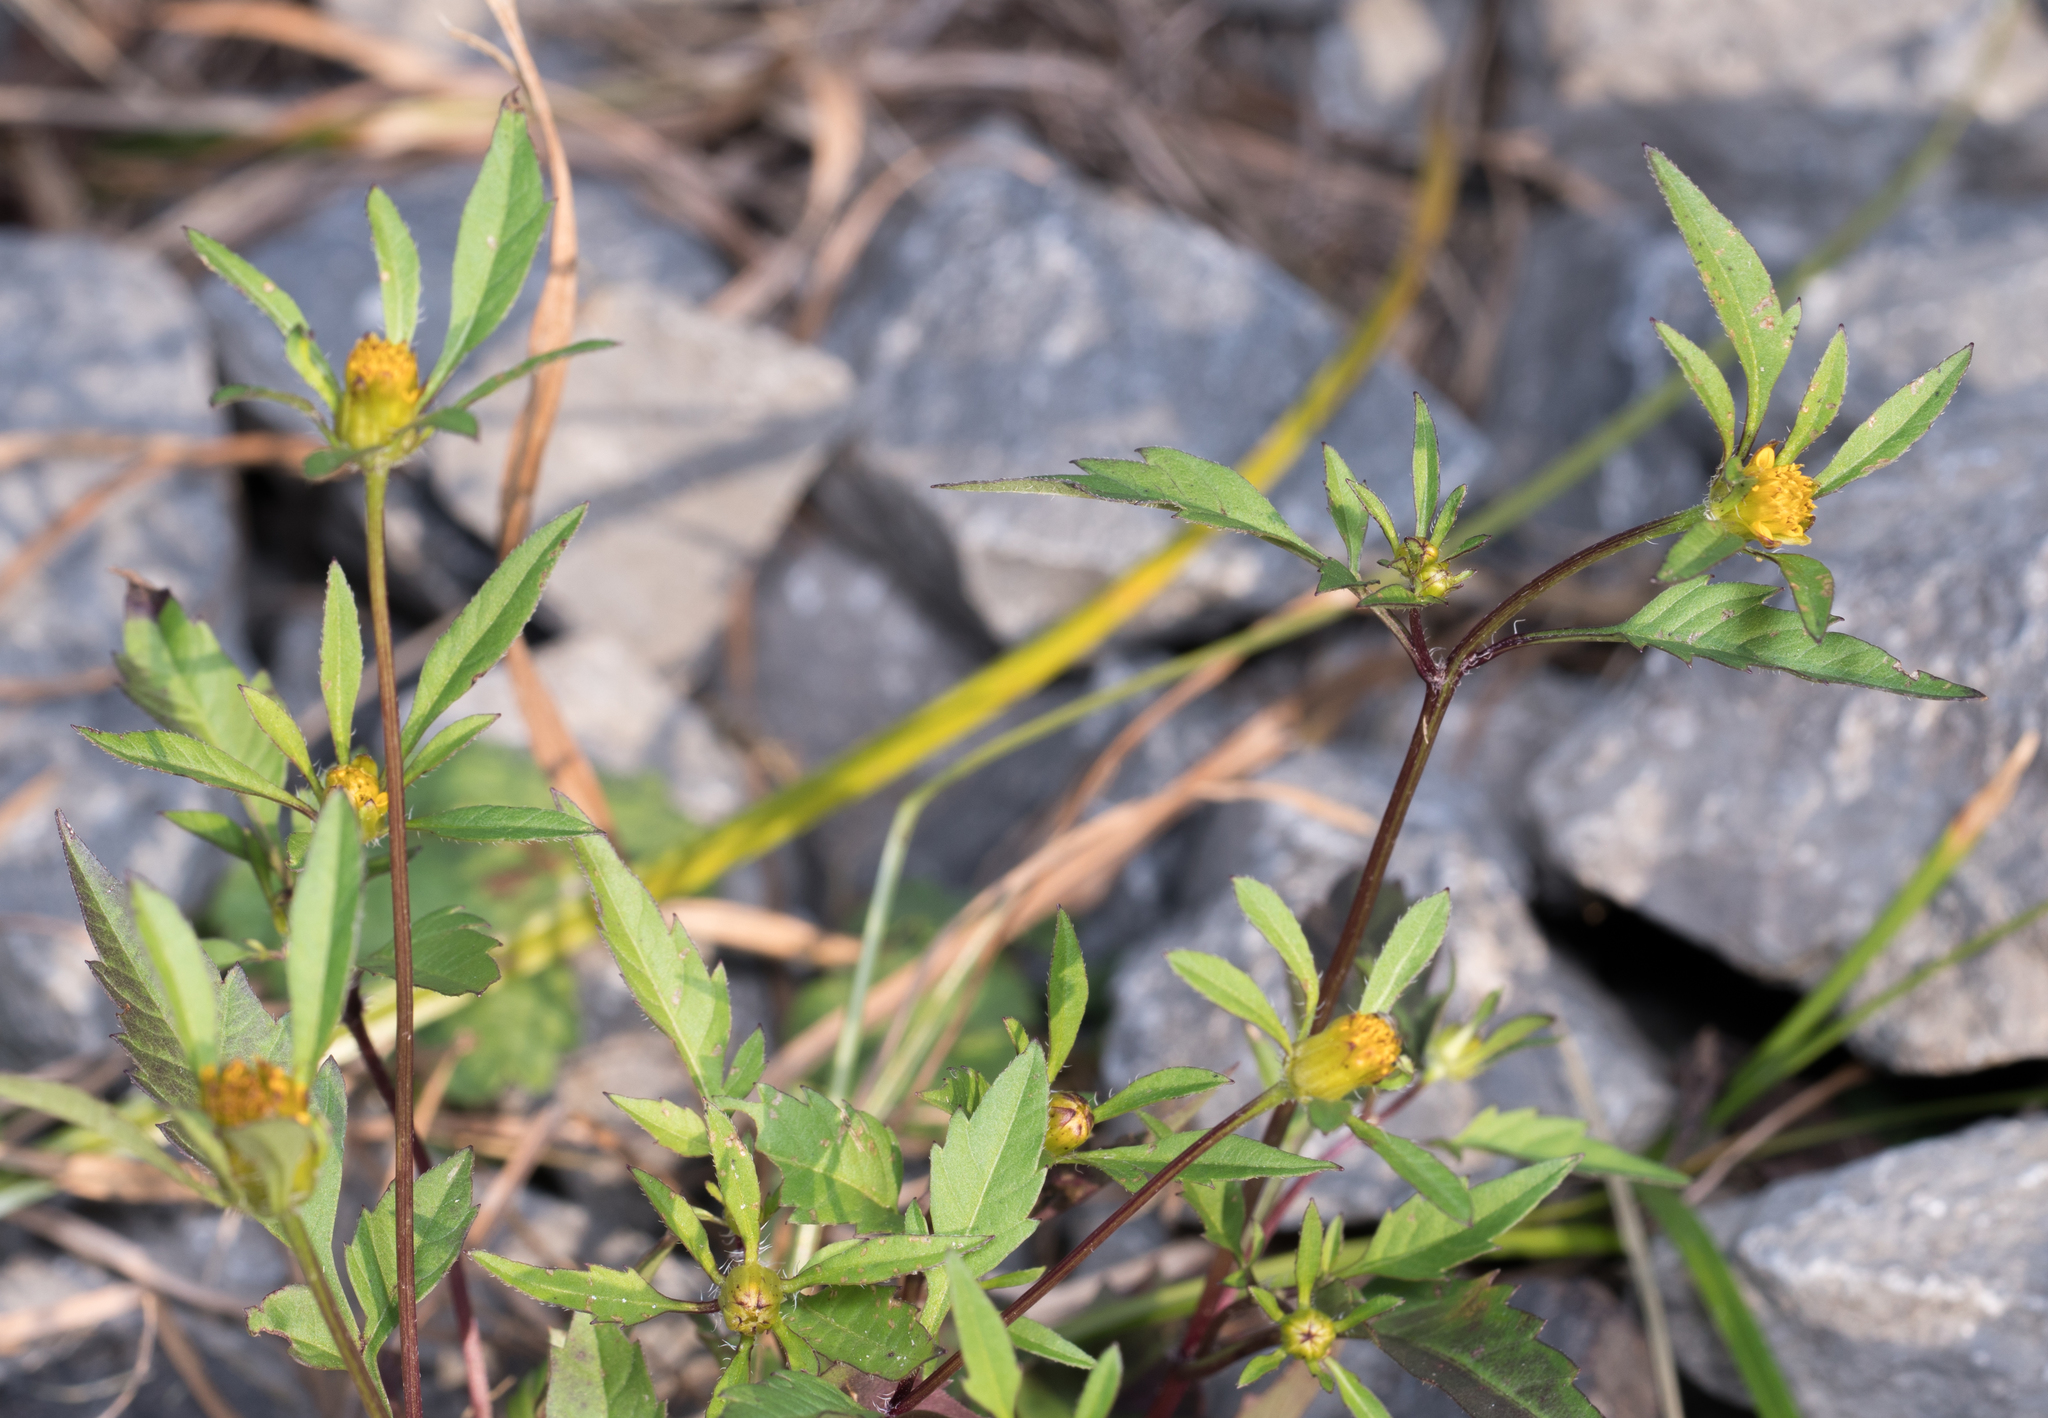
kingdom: Plantae
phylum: Tracheophyta
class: Magnoliopsida
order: Asterales
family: Asteraceae
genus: Bidens
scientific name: Bidens frondosa
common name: Beggarticks
